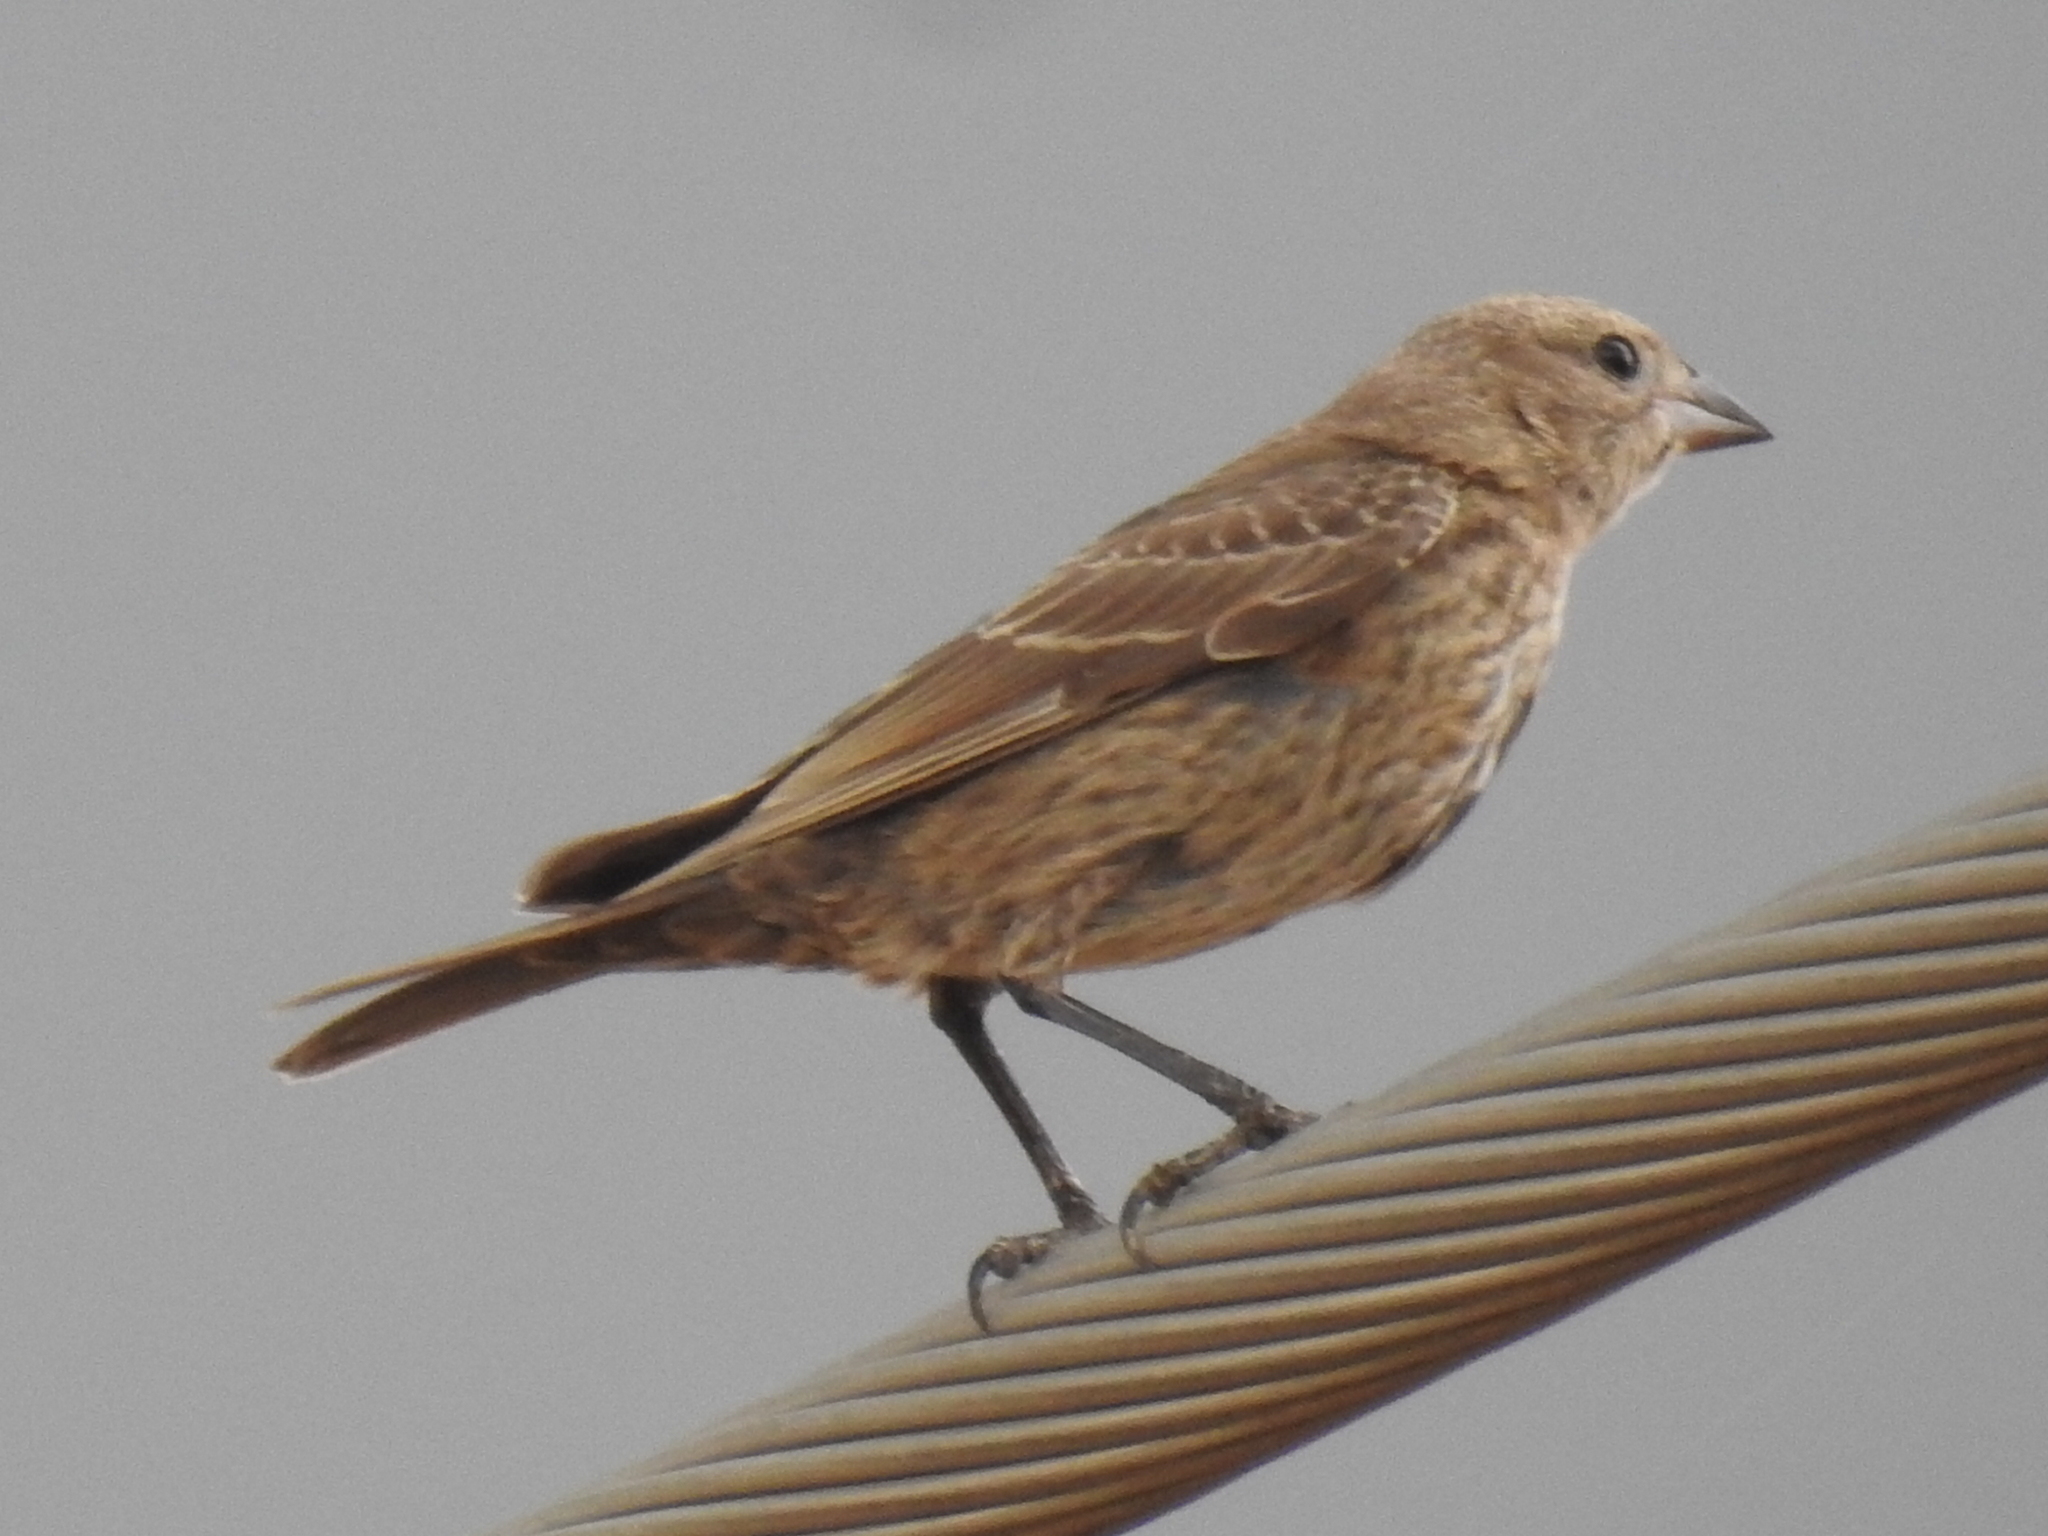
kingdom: Animalia
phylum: Chordata
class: Aves
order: Passeriformes
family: Icteridae
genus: Molothrus
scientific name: Molothrus ater
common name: Brown-headed cowbird
